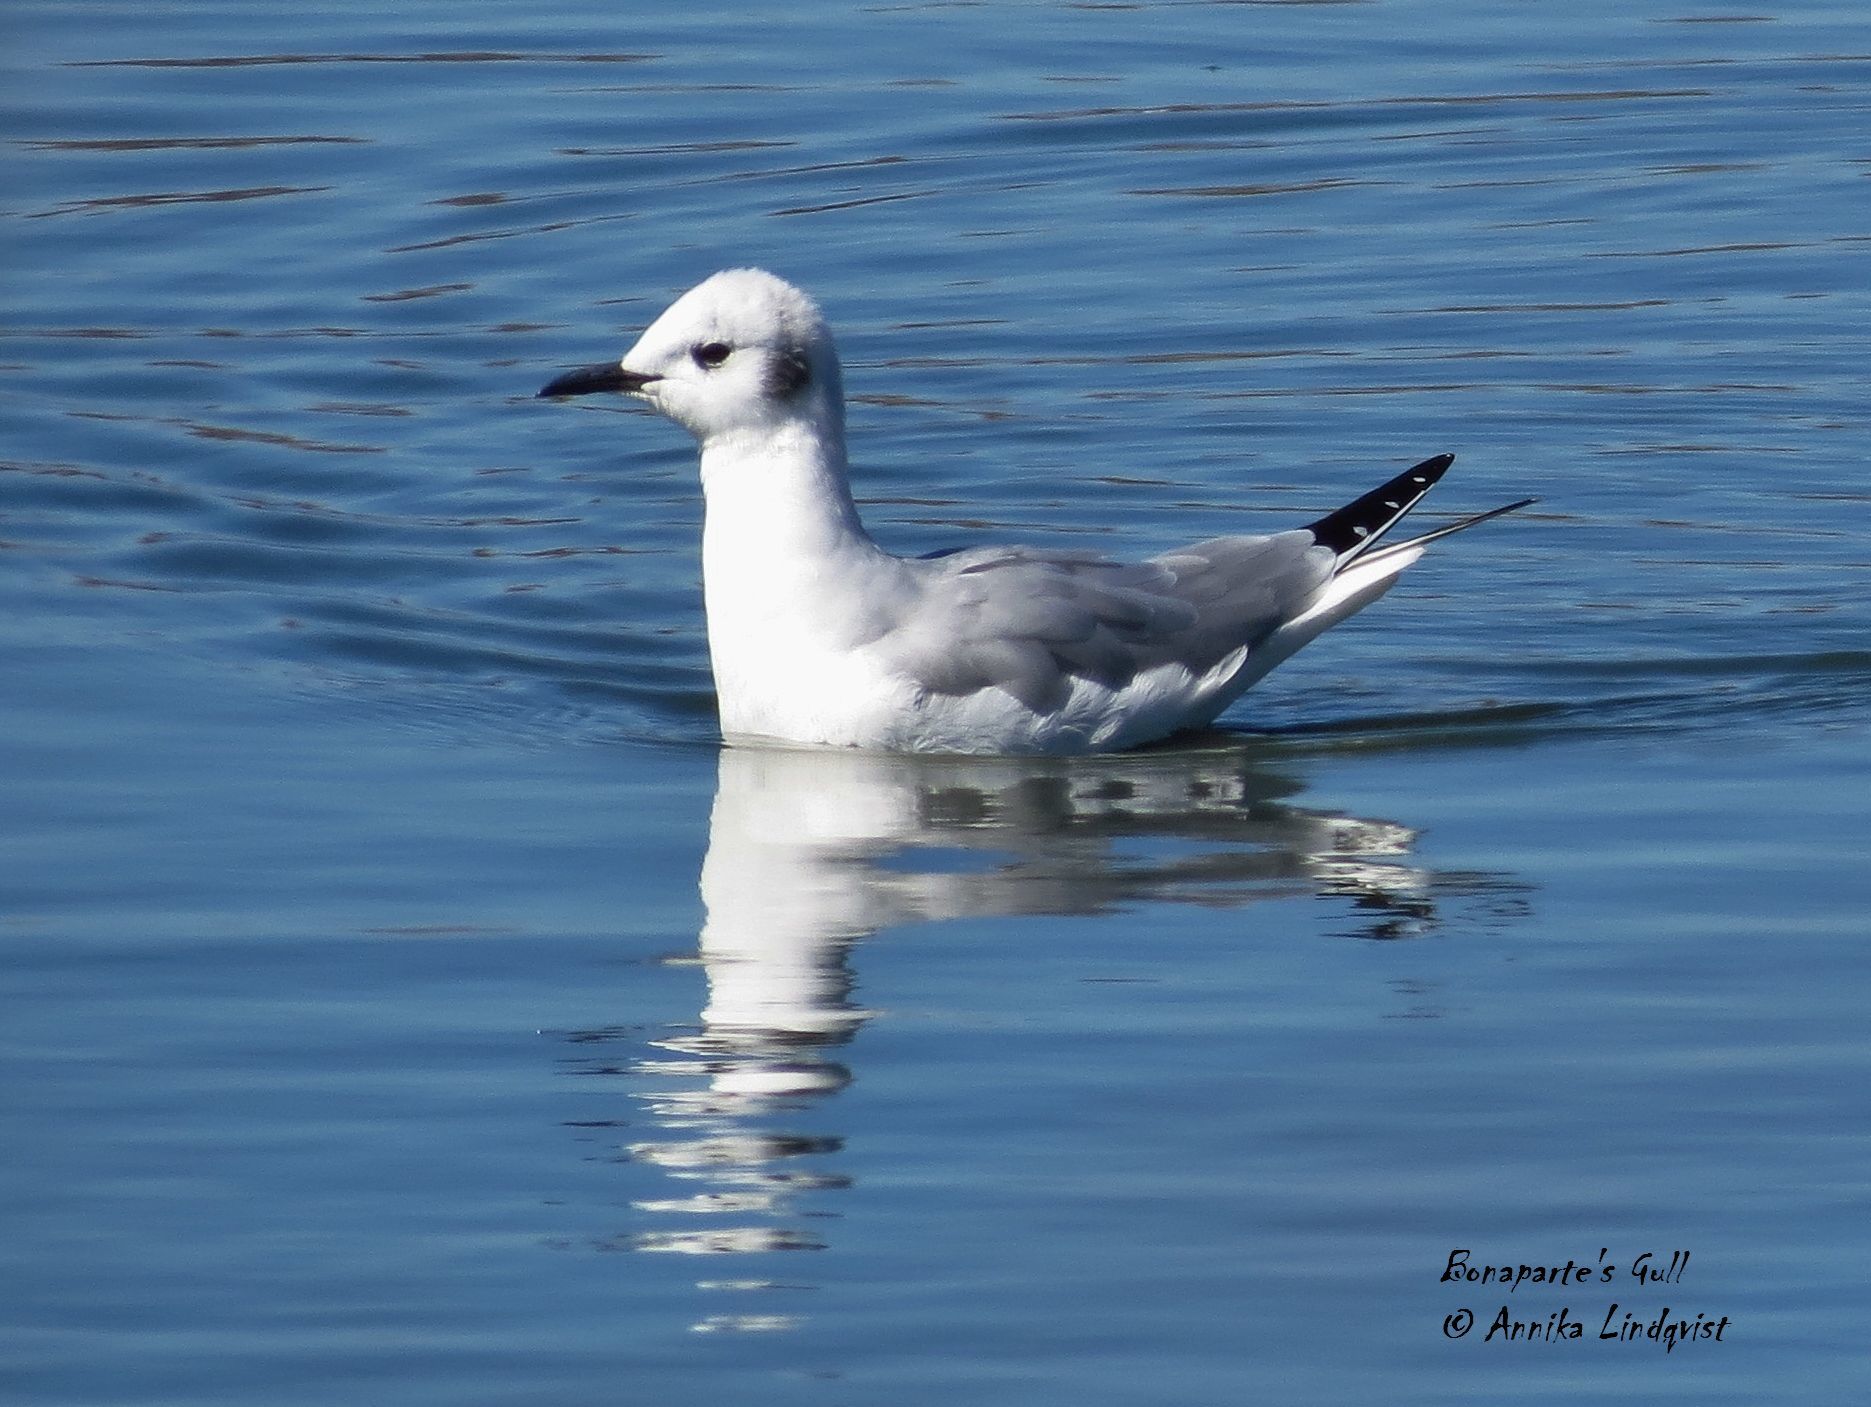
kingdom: Animalia
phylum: Chordata
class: Aves
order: Charadriiformes
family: Laridae
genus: Chroicocephalus
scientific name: Chroicocephalus philadelphia
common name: Bonaparte's gull
